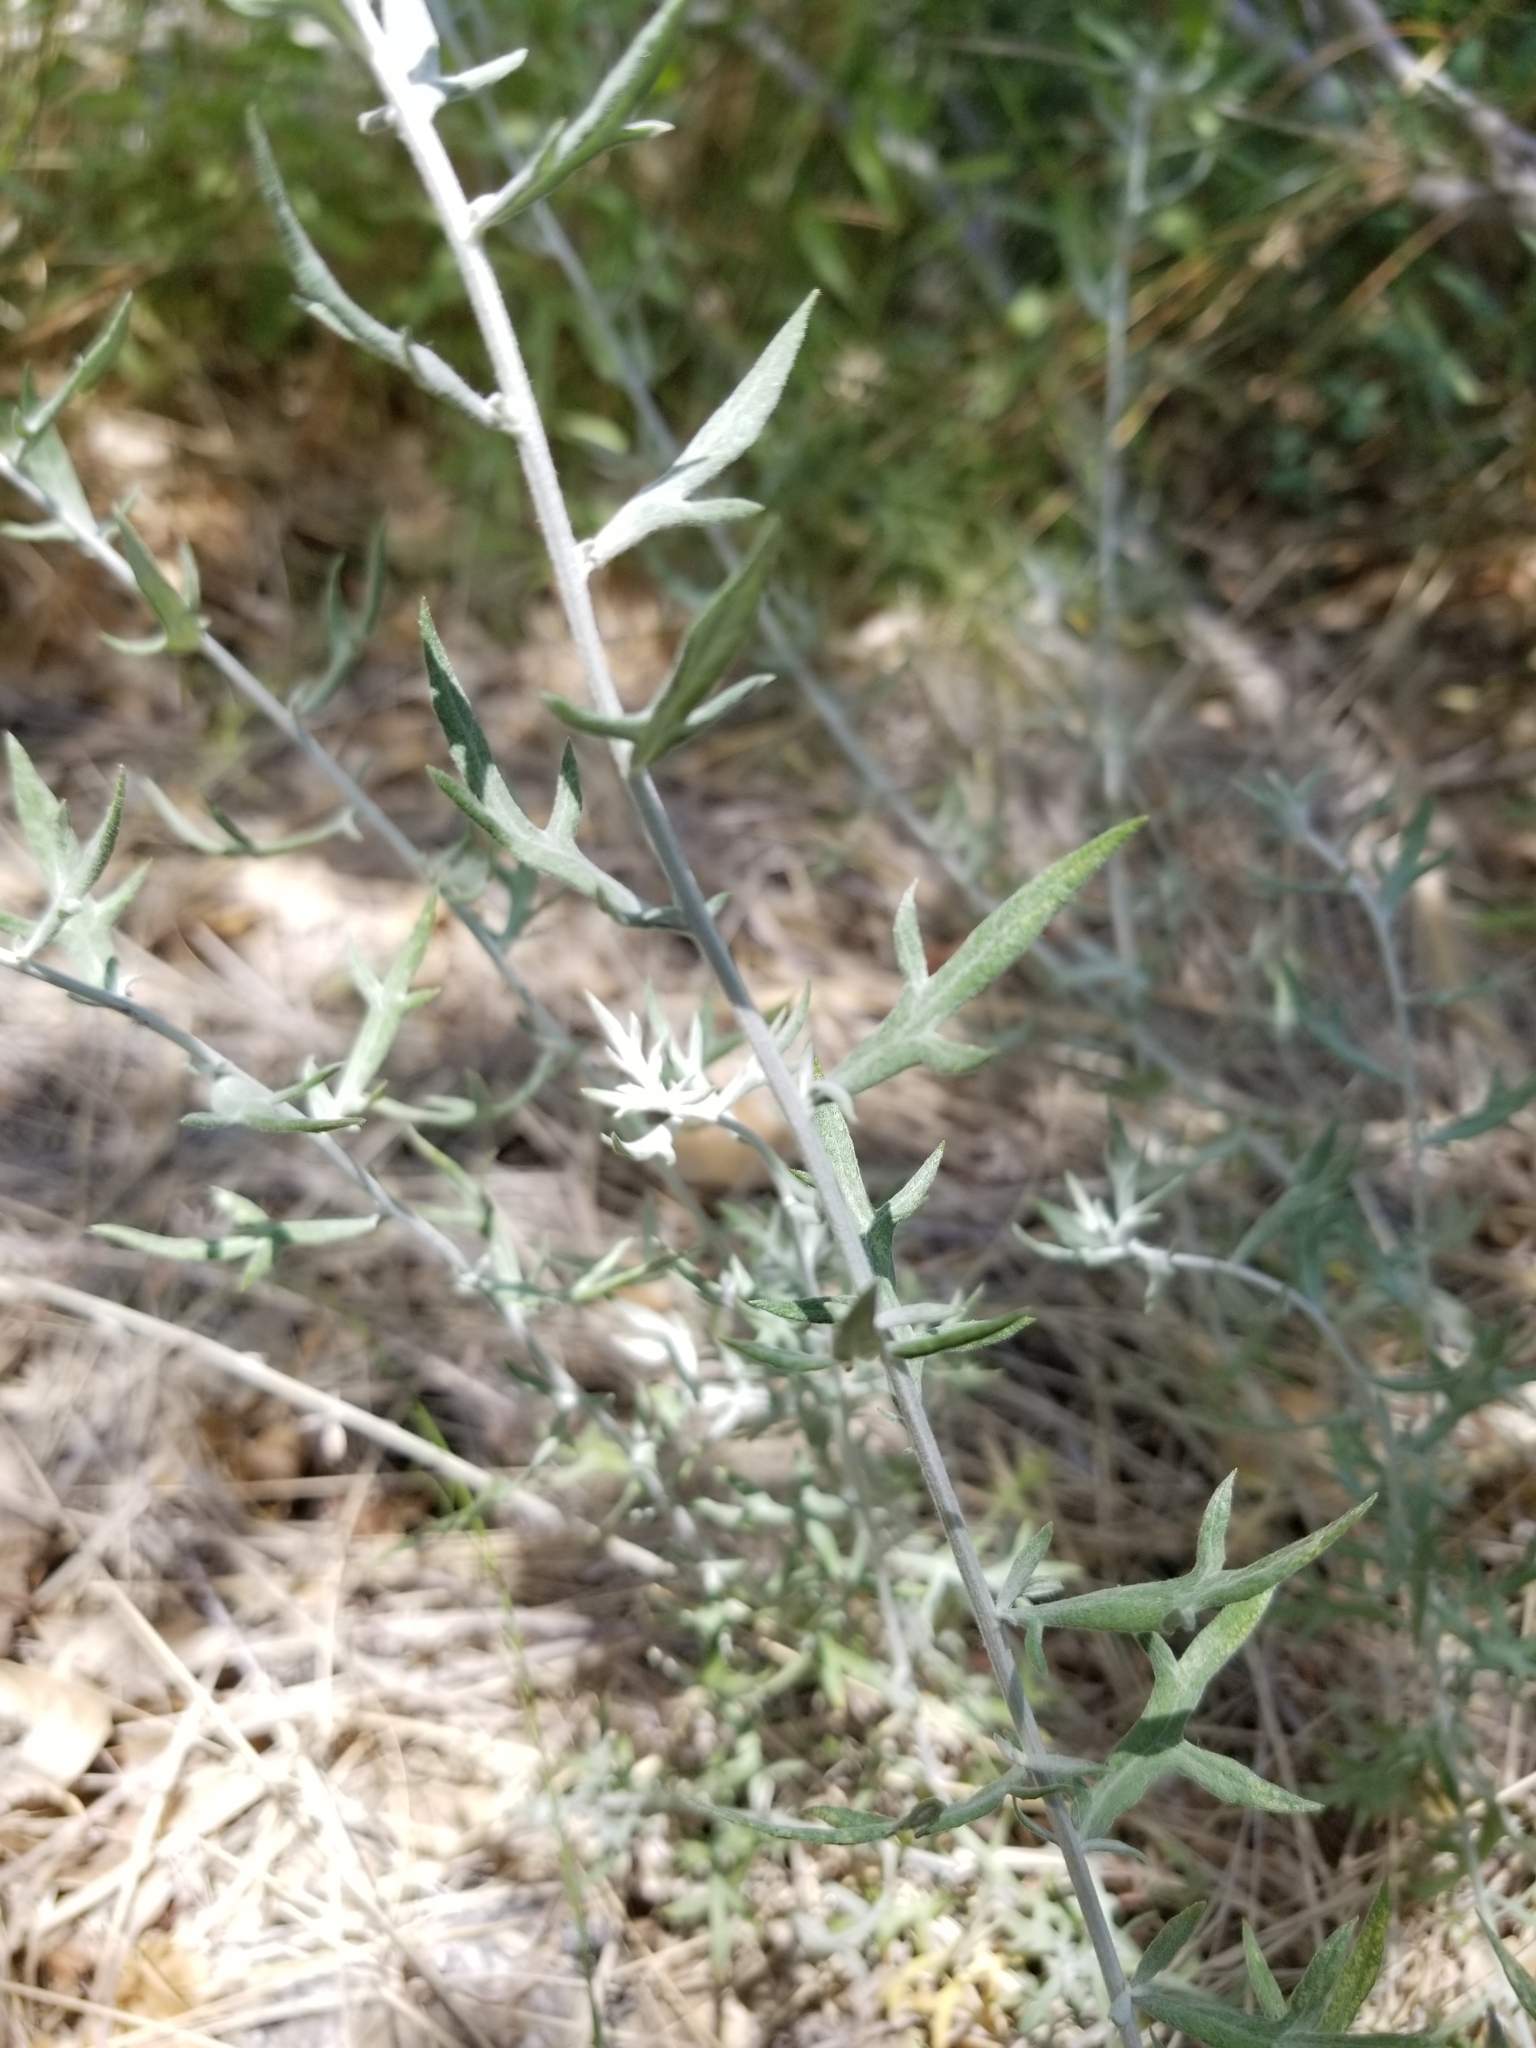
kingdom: Plantae
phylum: Tracheophyta
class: Magnoliopsida
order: Asterales
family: Asteraceae
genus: Artemisia
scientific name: Artemisia ludoviciana
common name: Western mugwort
